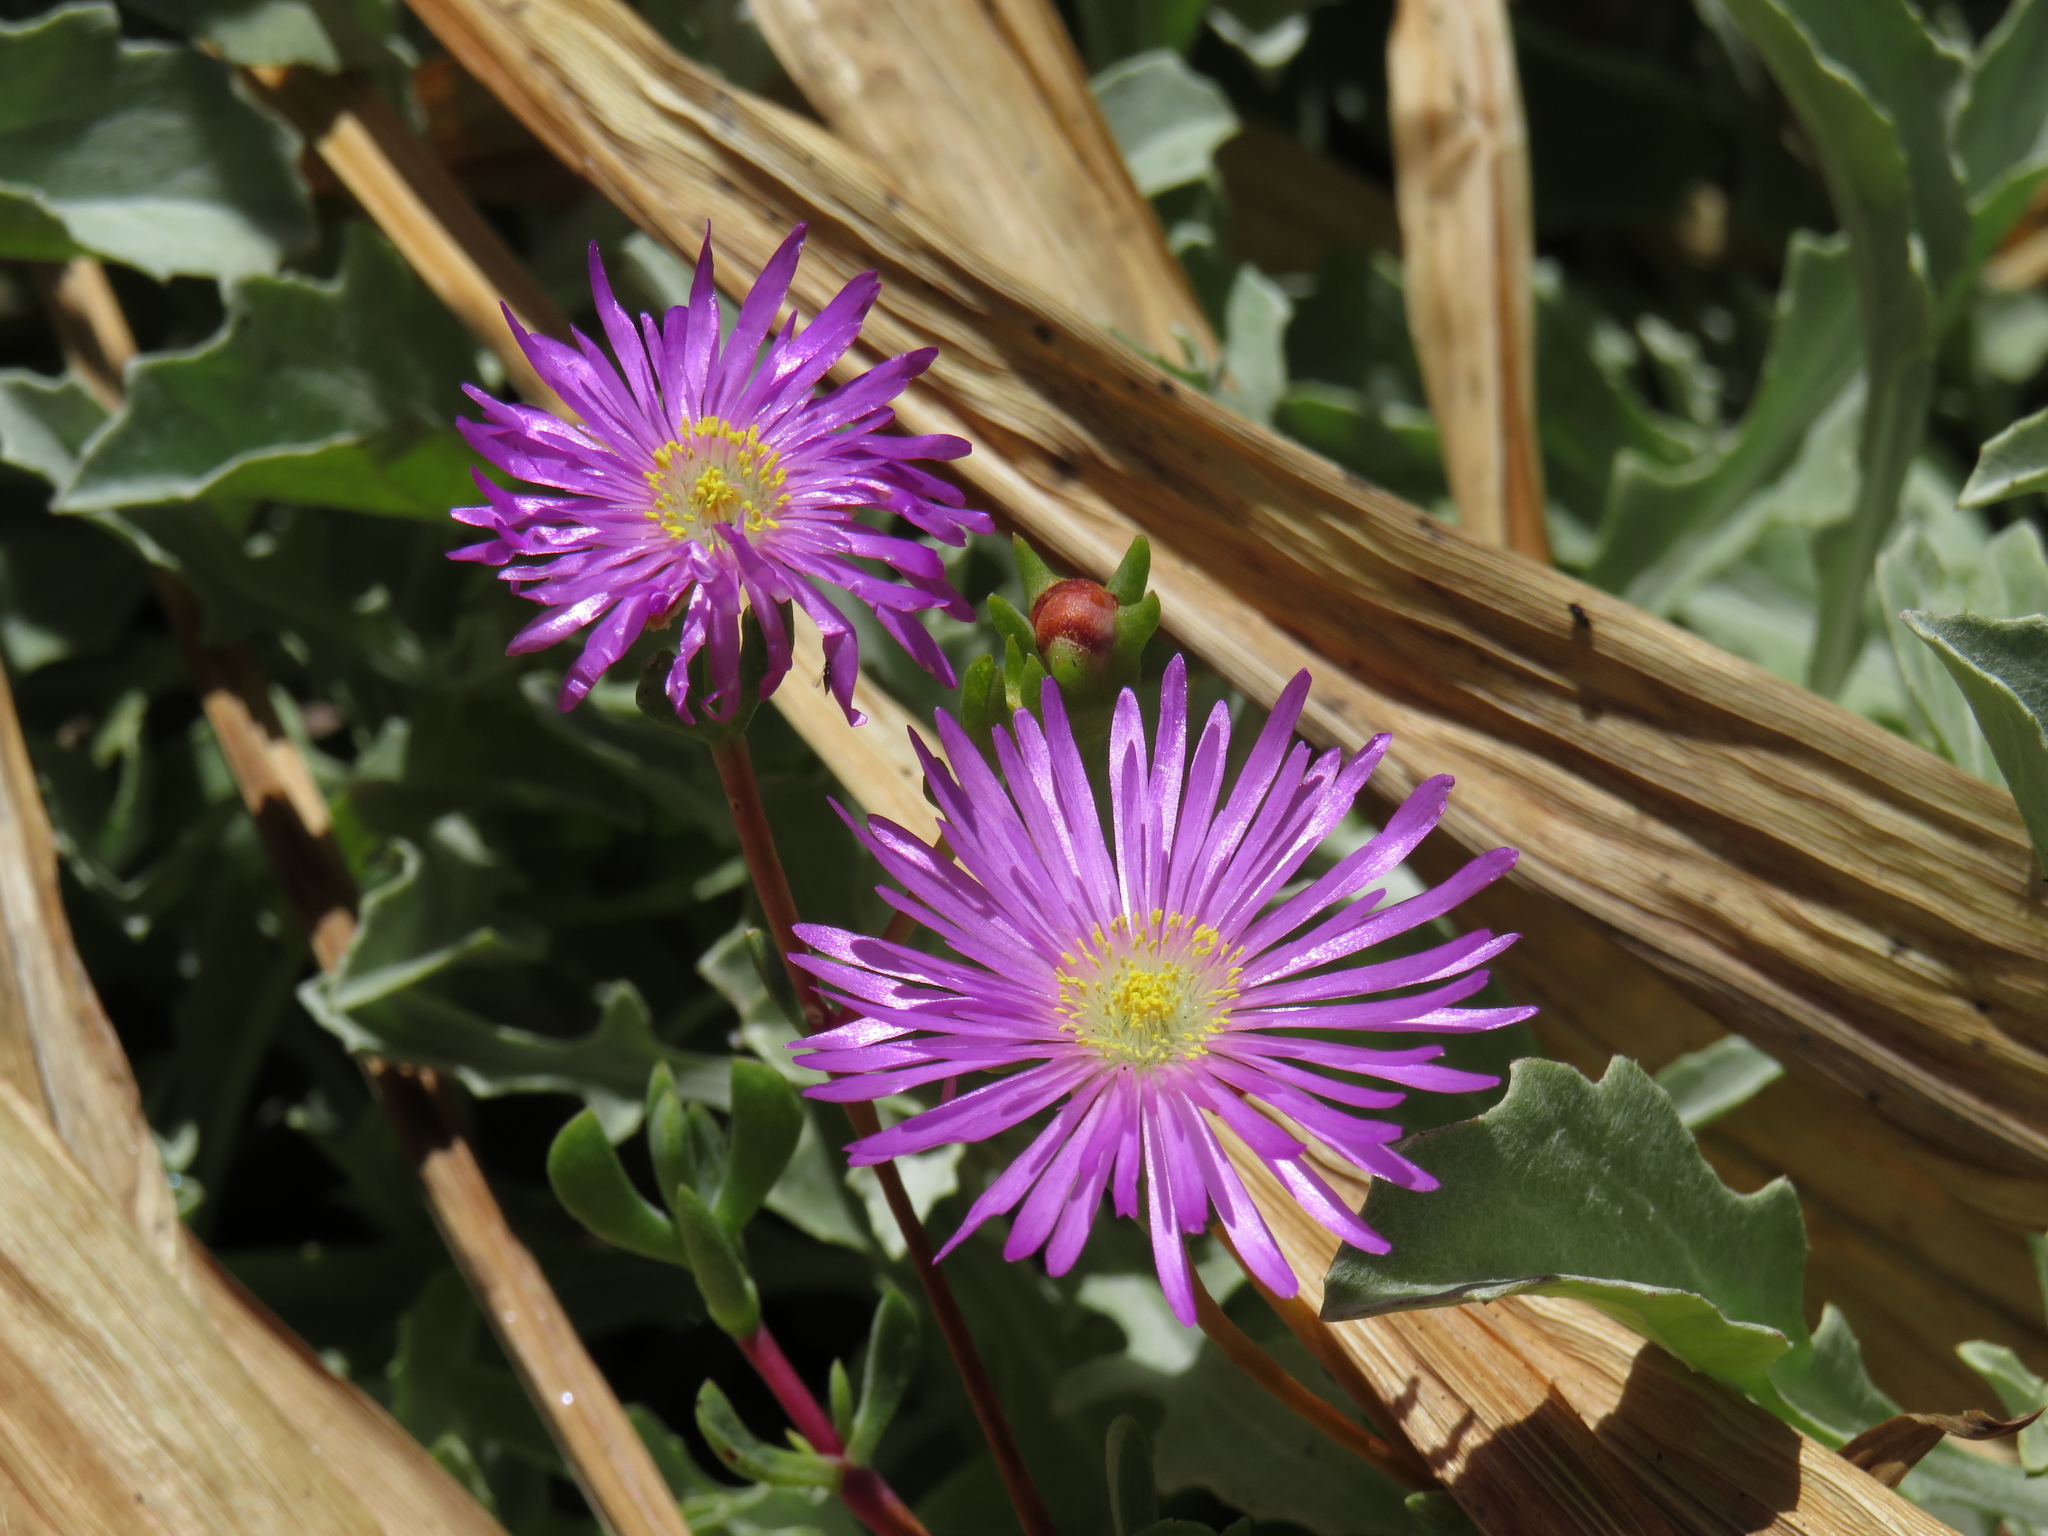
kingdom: Plantae
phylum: Tracheophyta
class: Magnoliopsida
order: Caryophyllales
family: Aizoaceae
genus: Oscularia
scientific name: Oscularia falciformis
